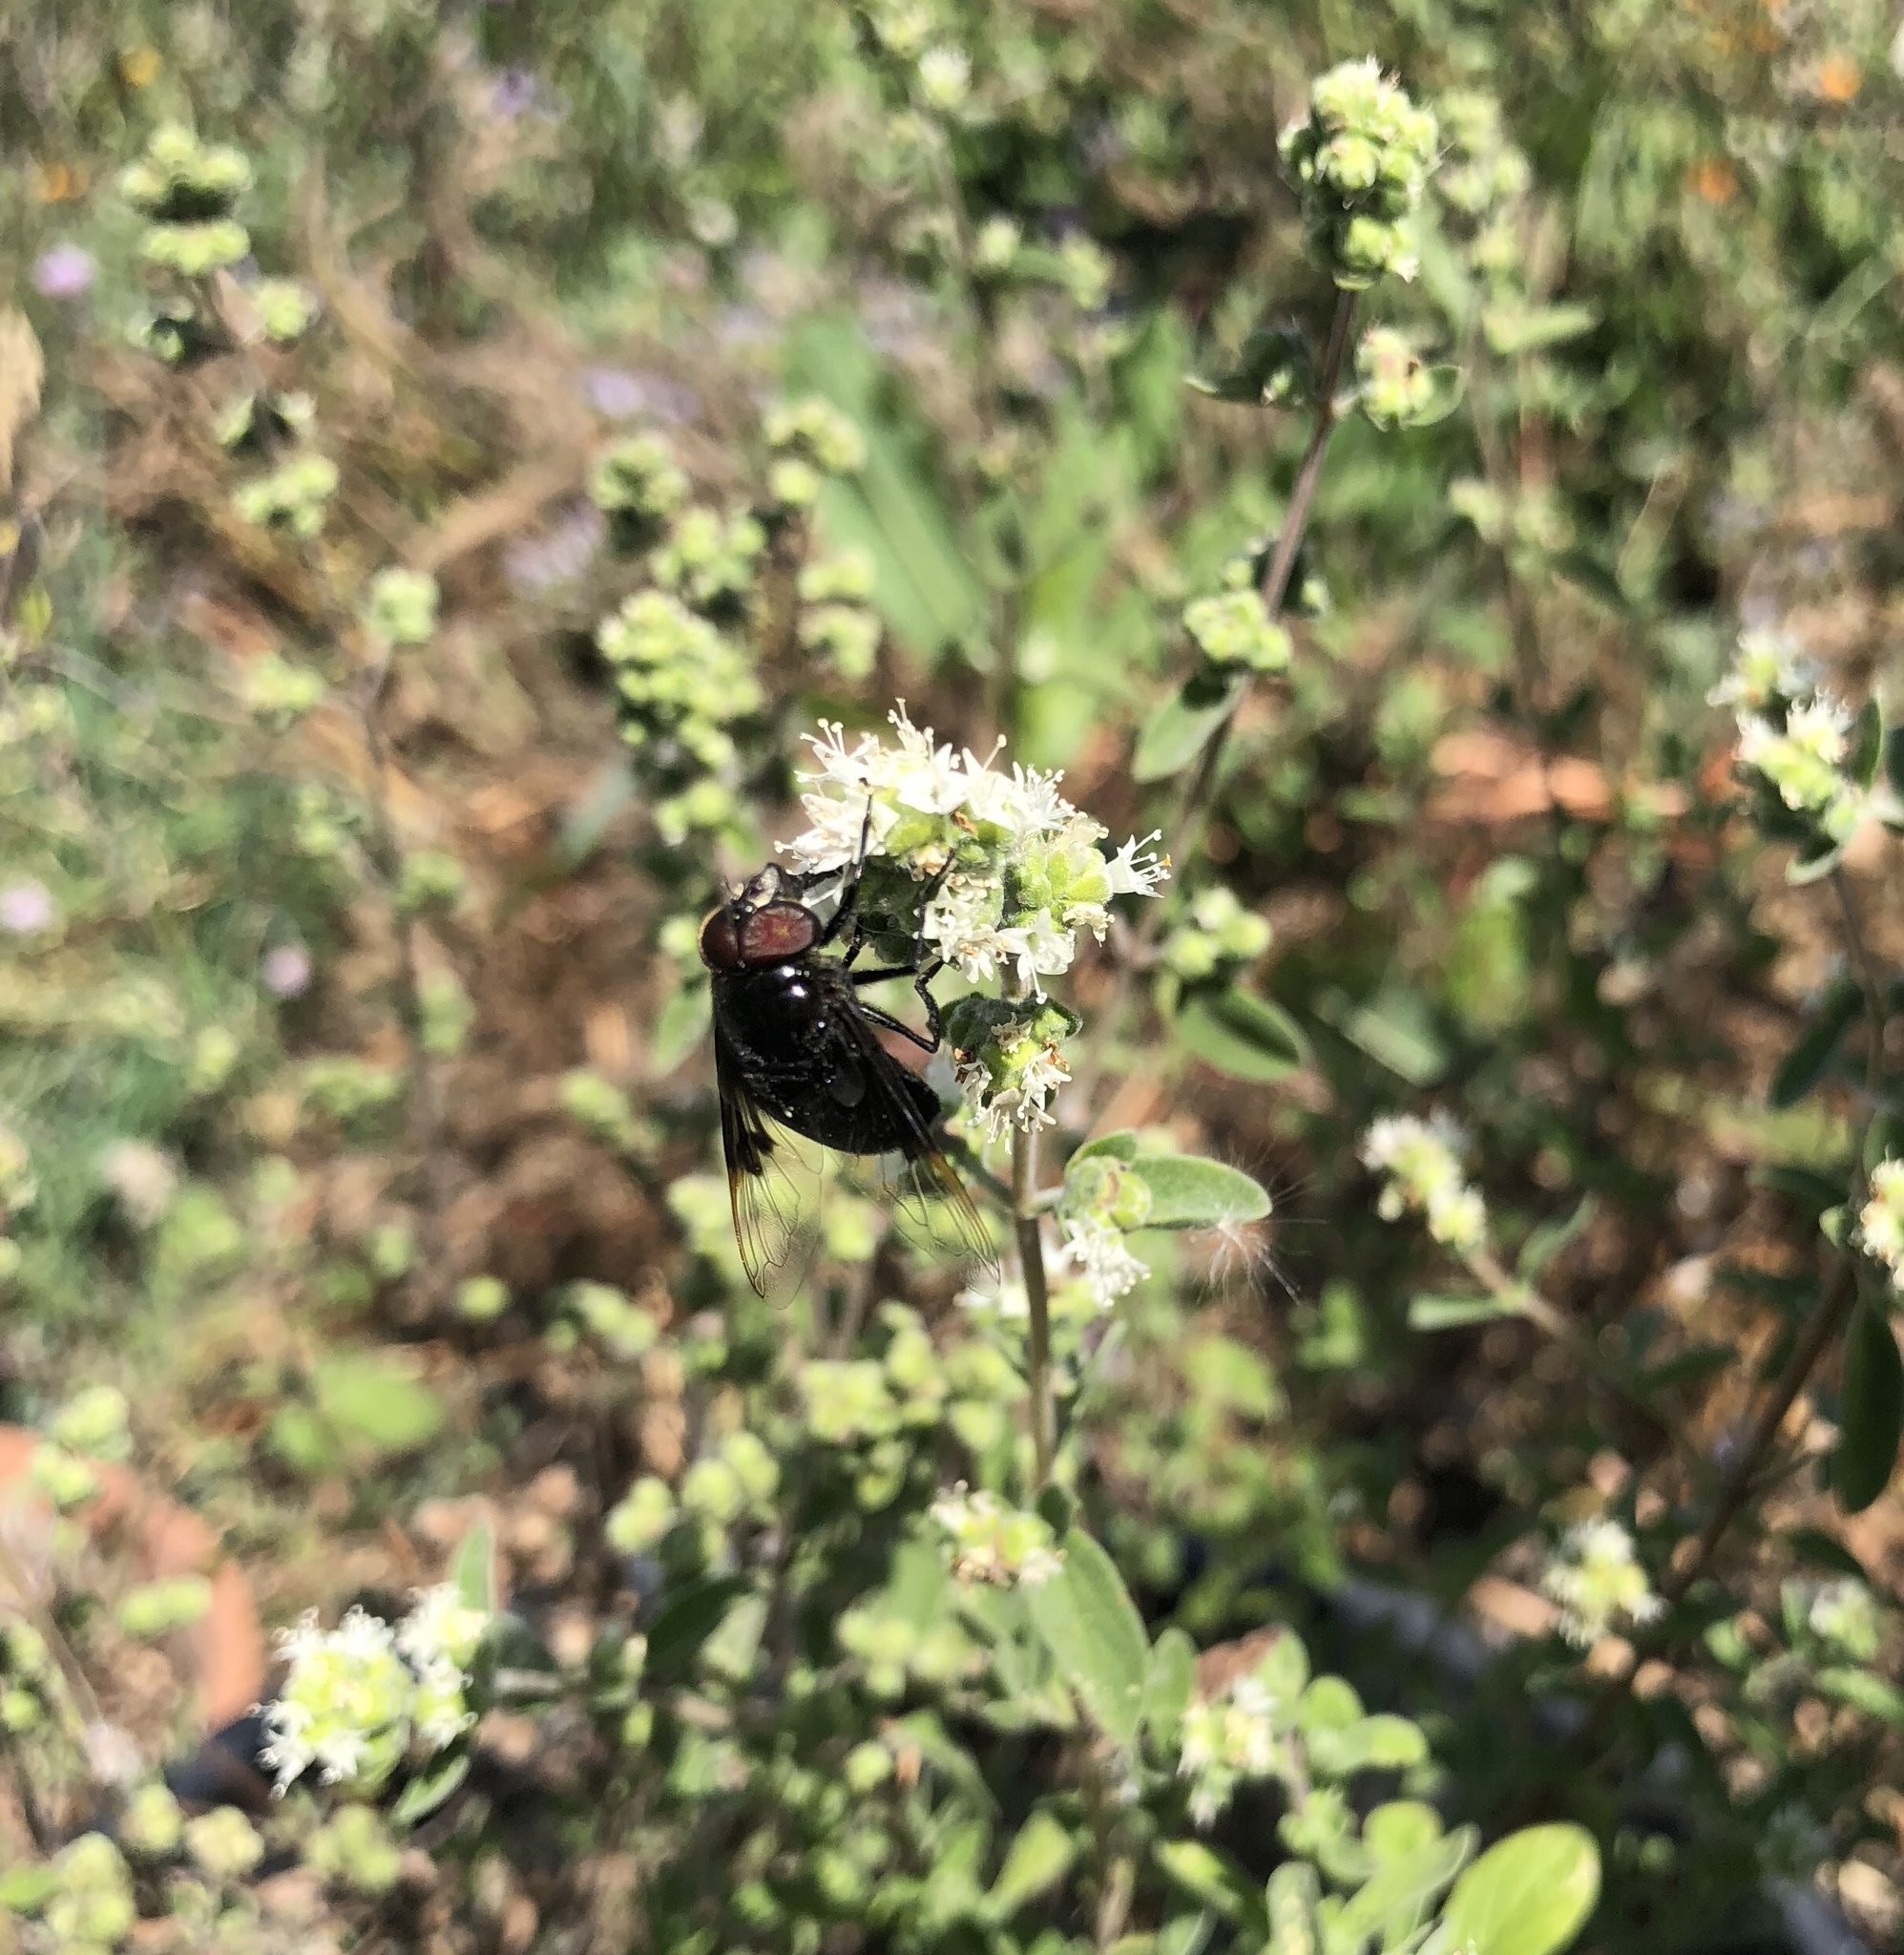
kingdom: Animalia
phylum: Arthropoda
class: Insecta
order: Diptera
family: Syrphidae
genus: Copestylum
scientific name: Copestylum violaceum
